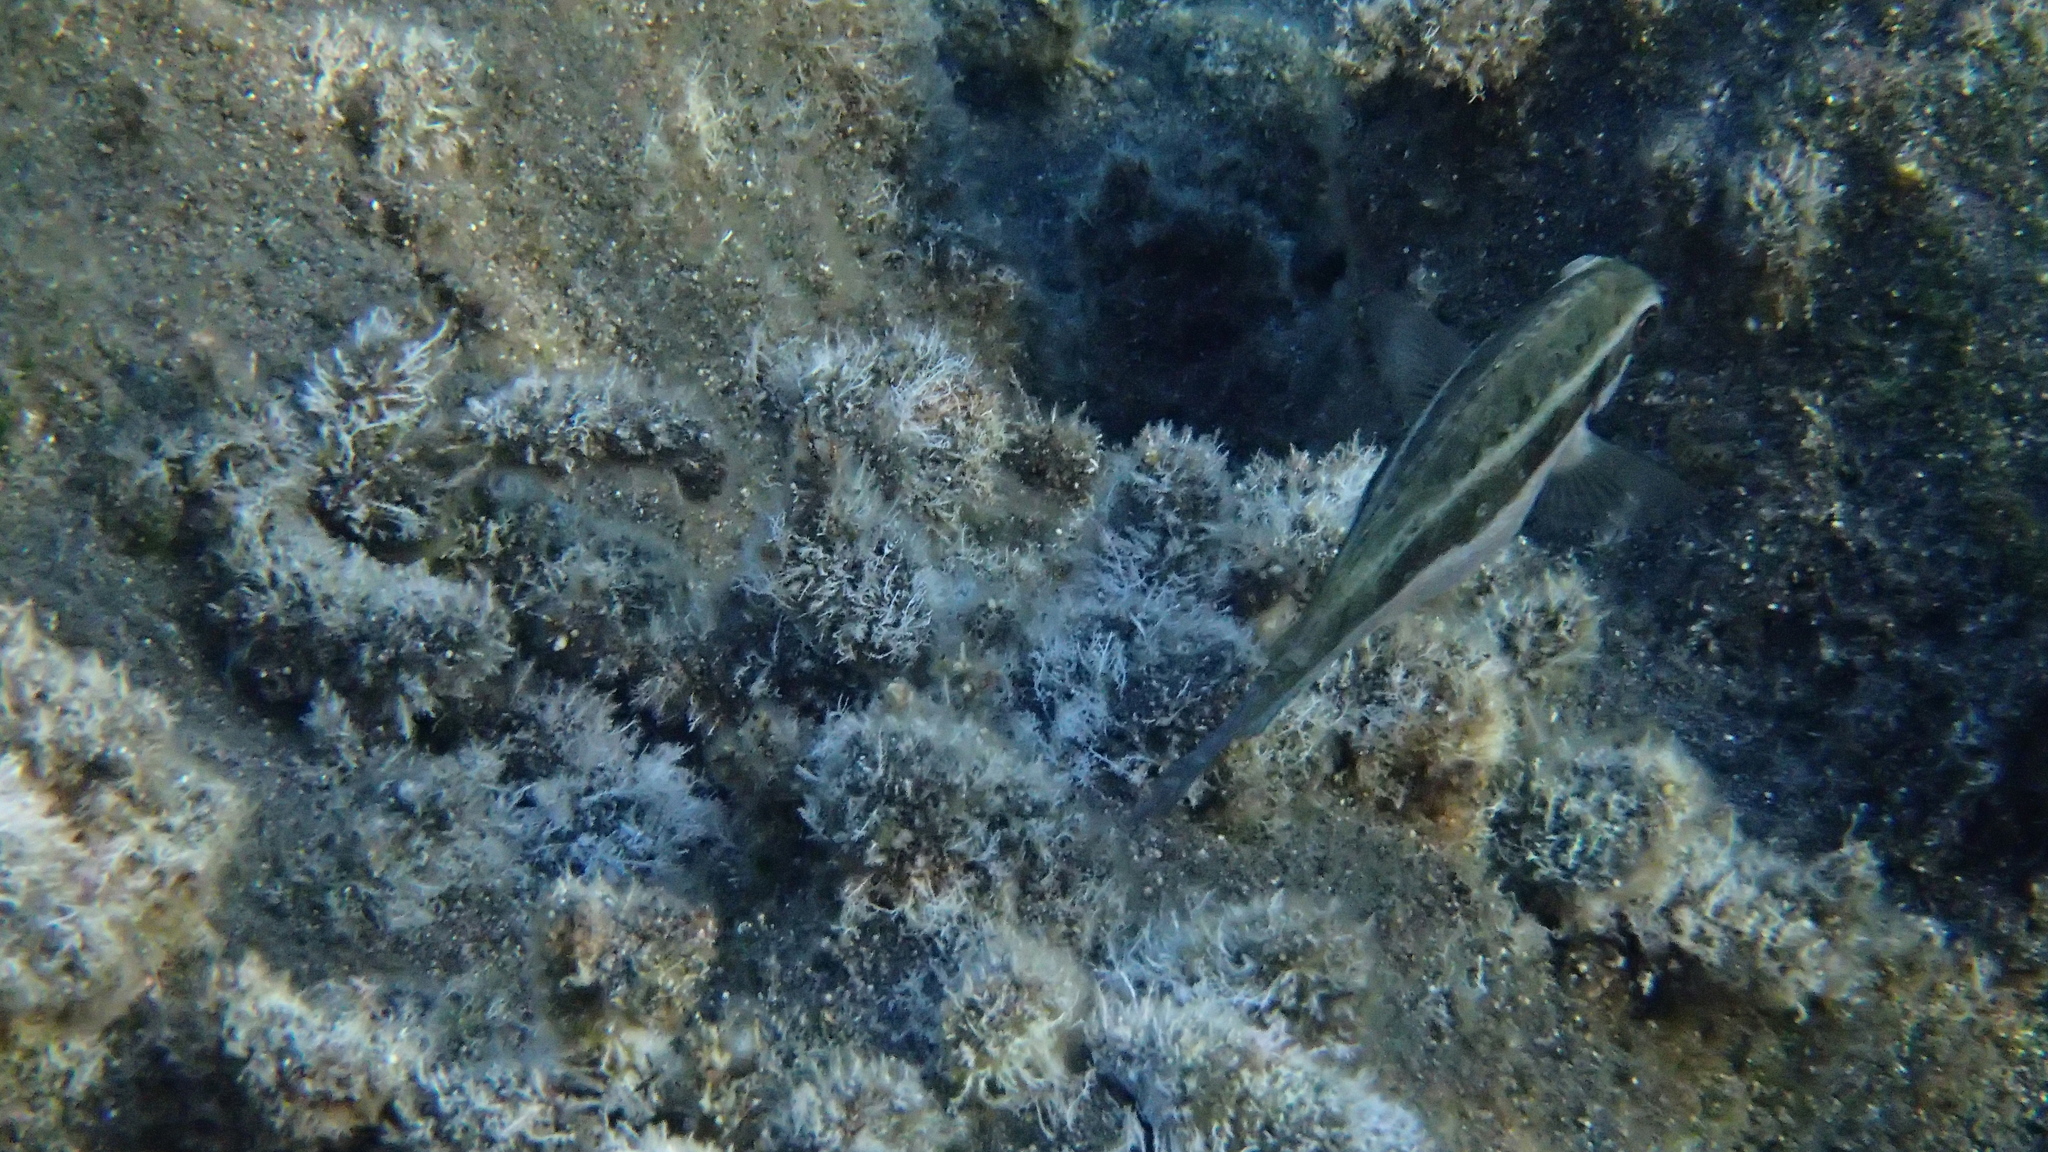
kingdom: Animalia
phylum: Chordata
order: Perciformes
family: Siganidae
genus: Siganus
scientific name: Siganus luridus
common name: Dusky spinefoot
